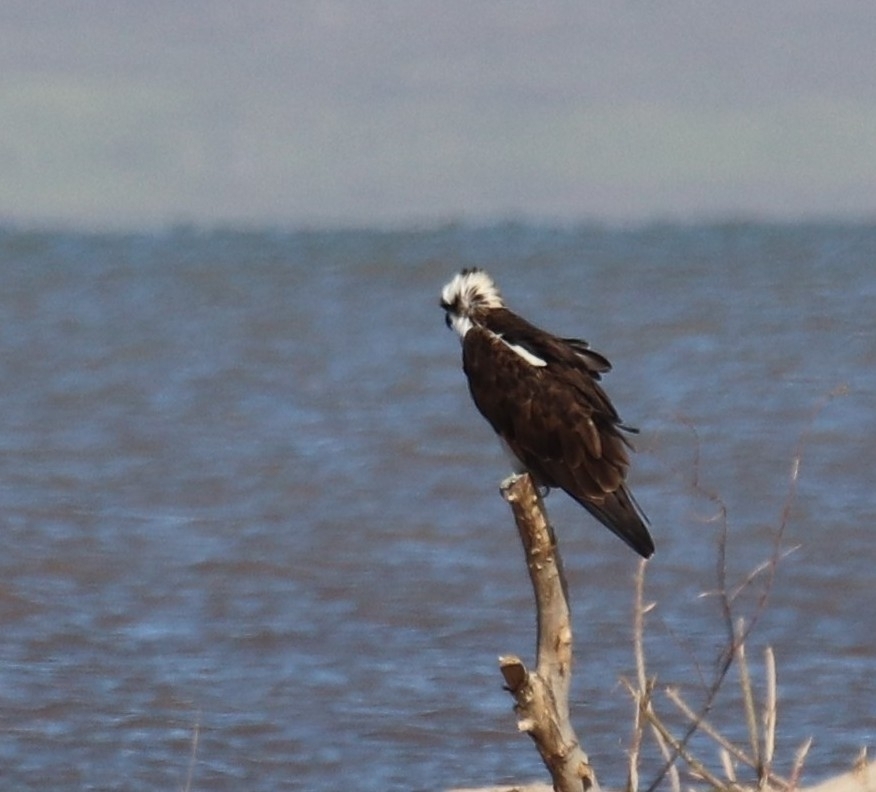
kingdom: Animalia
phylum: Chordata
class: Aves
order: Accipitriformes
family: Pandionidae
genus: Pandion
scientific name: Pandion haliaetus
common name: Osprey
